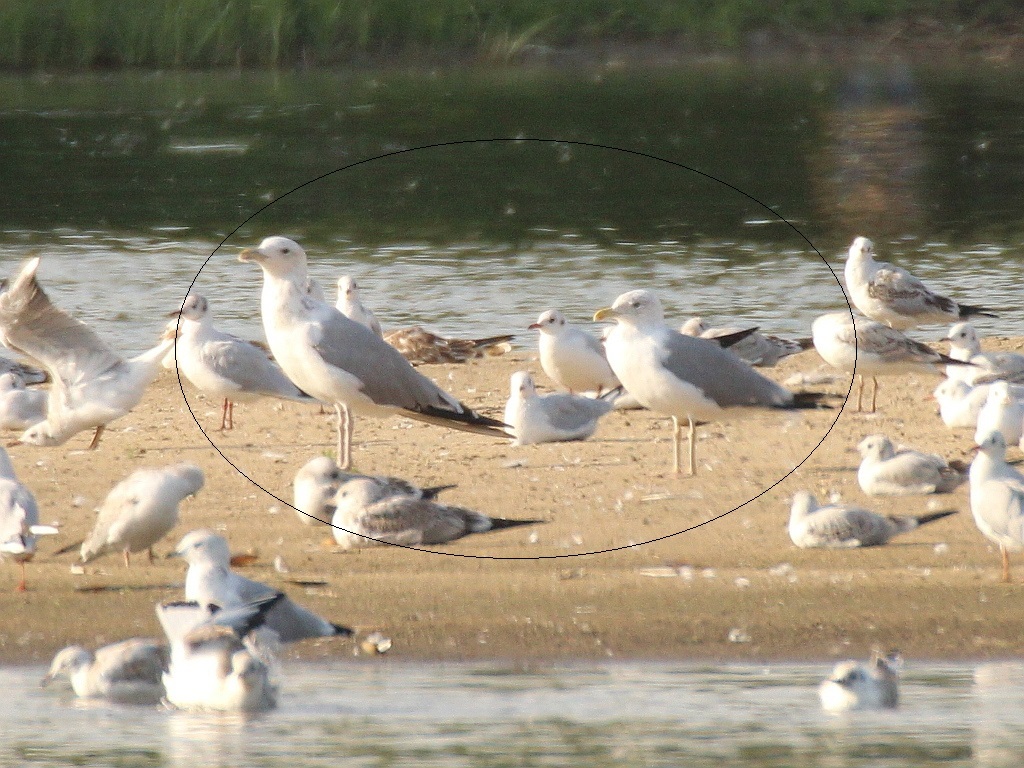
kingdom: Animalia
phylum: Chordata
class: Aves
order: Charadriiformes
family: Laridae
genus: Larus
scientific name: Larus cachinnans
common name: Caspian gull
